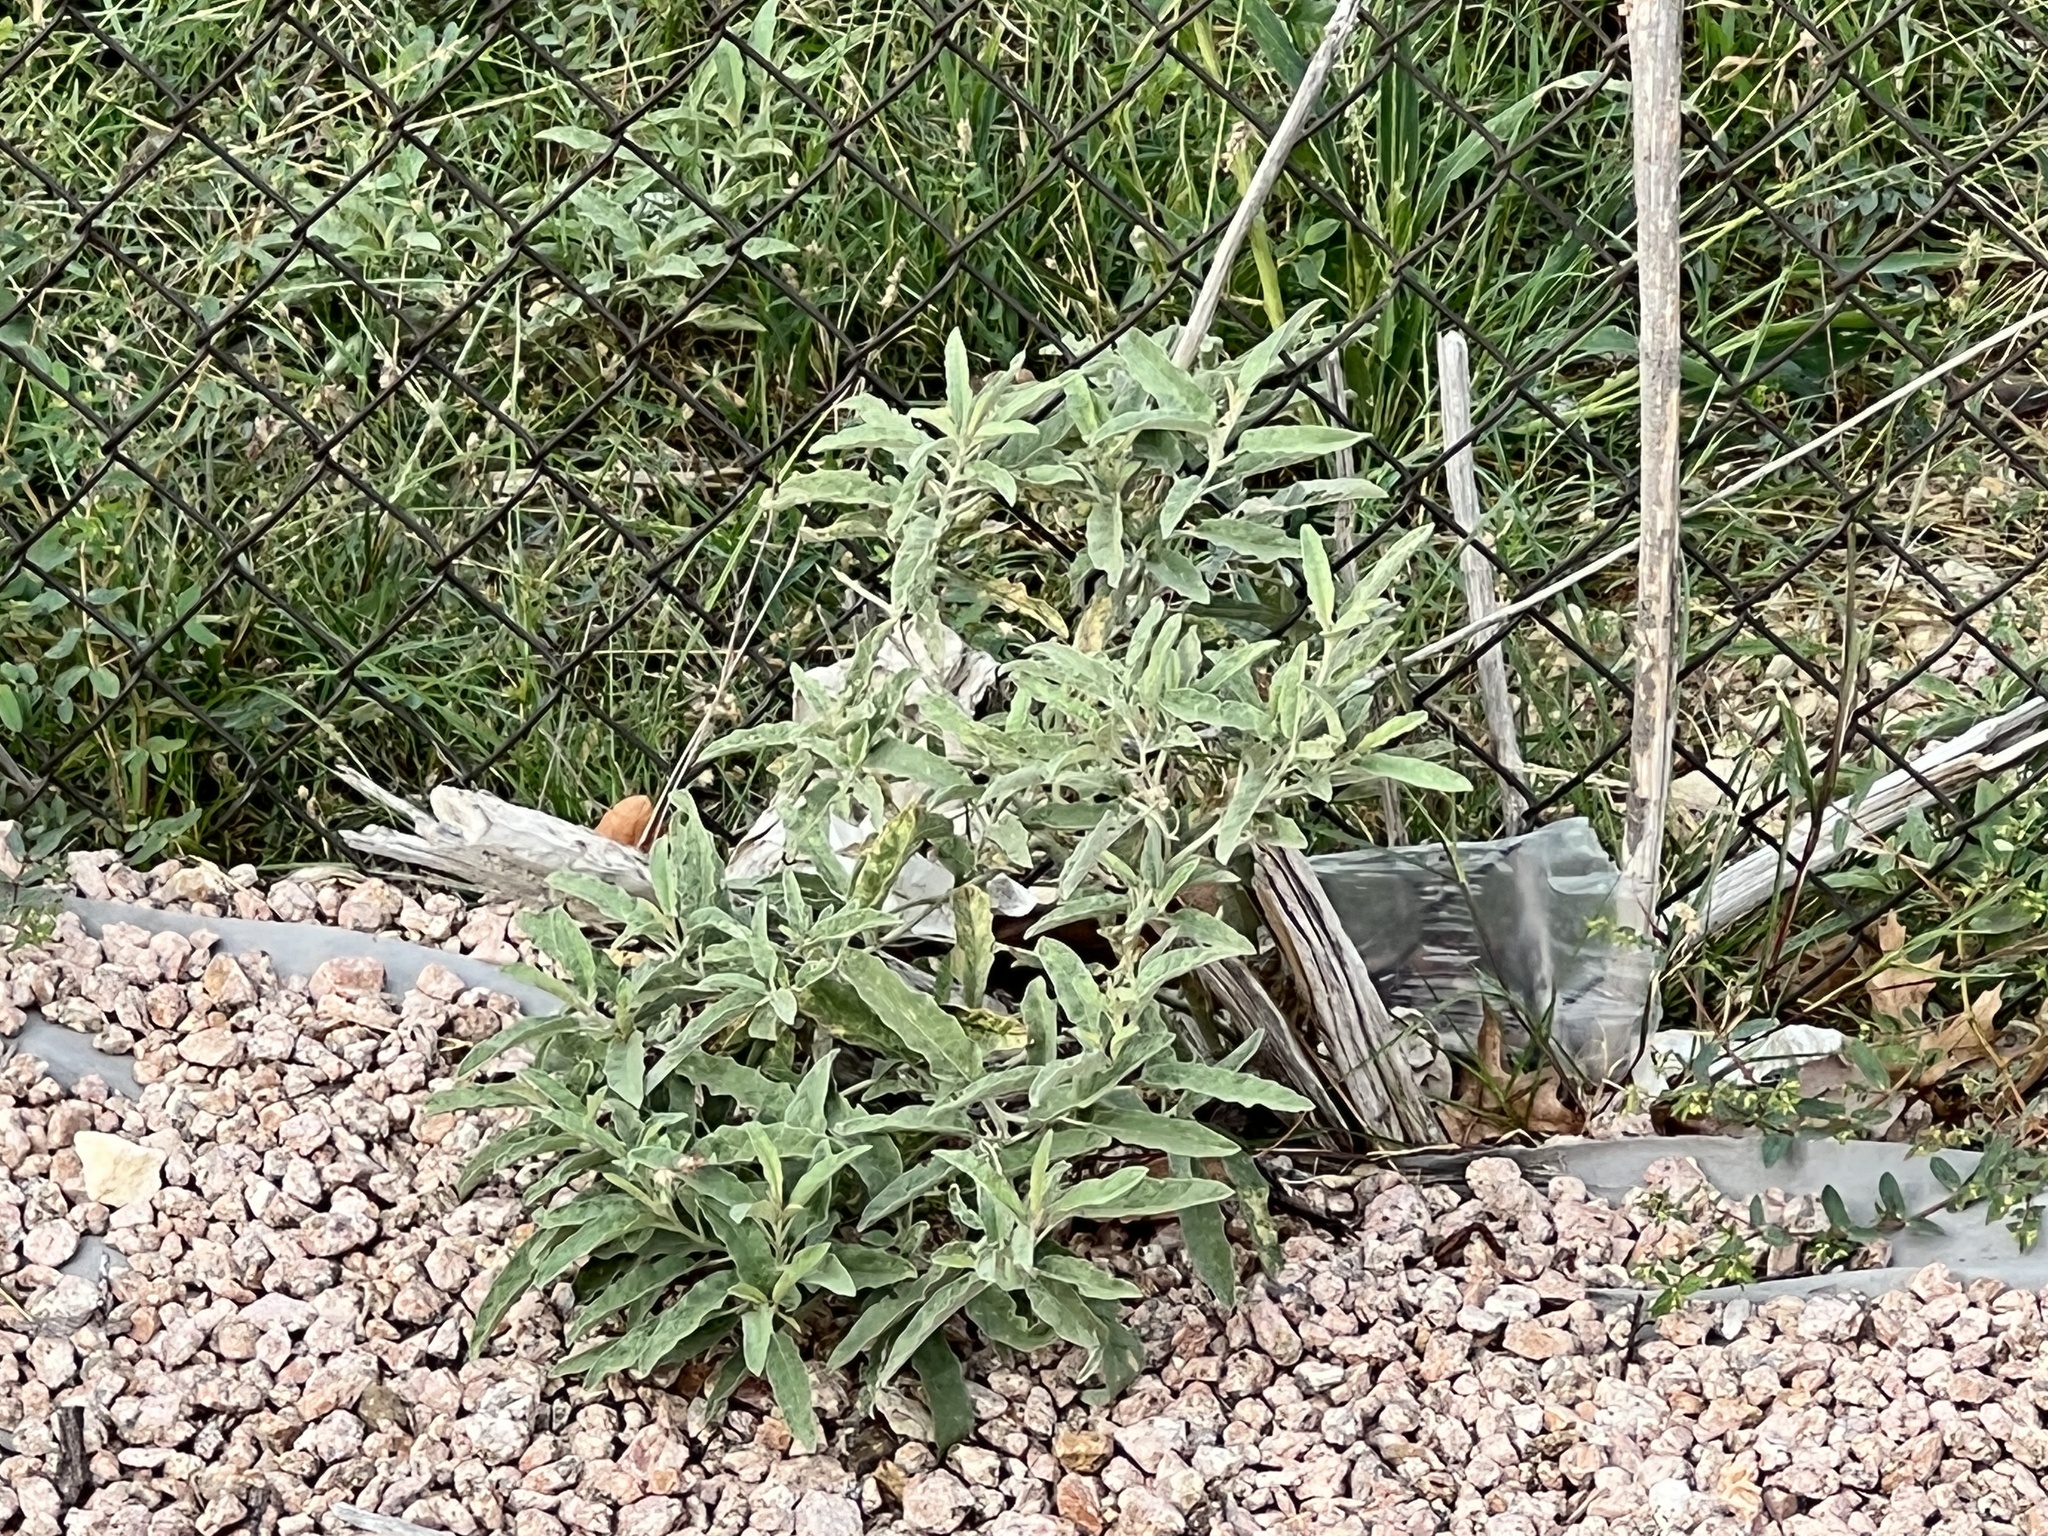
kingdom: Plantae
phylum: Tracheophyta
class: Magnoliopsida
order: Solanales
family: Solanaceae
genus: Solanum
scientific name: Solanum elaeagnifolium
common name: Silverleaf nightshade
